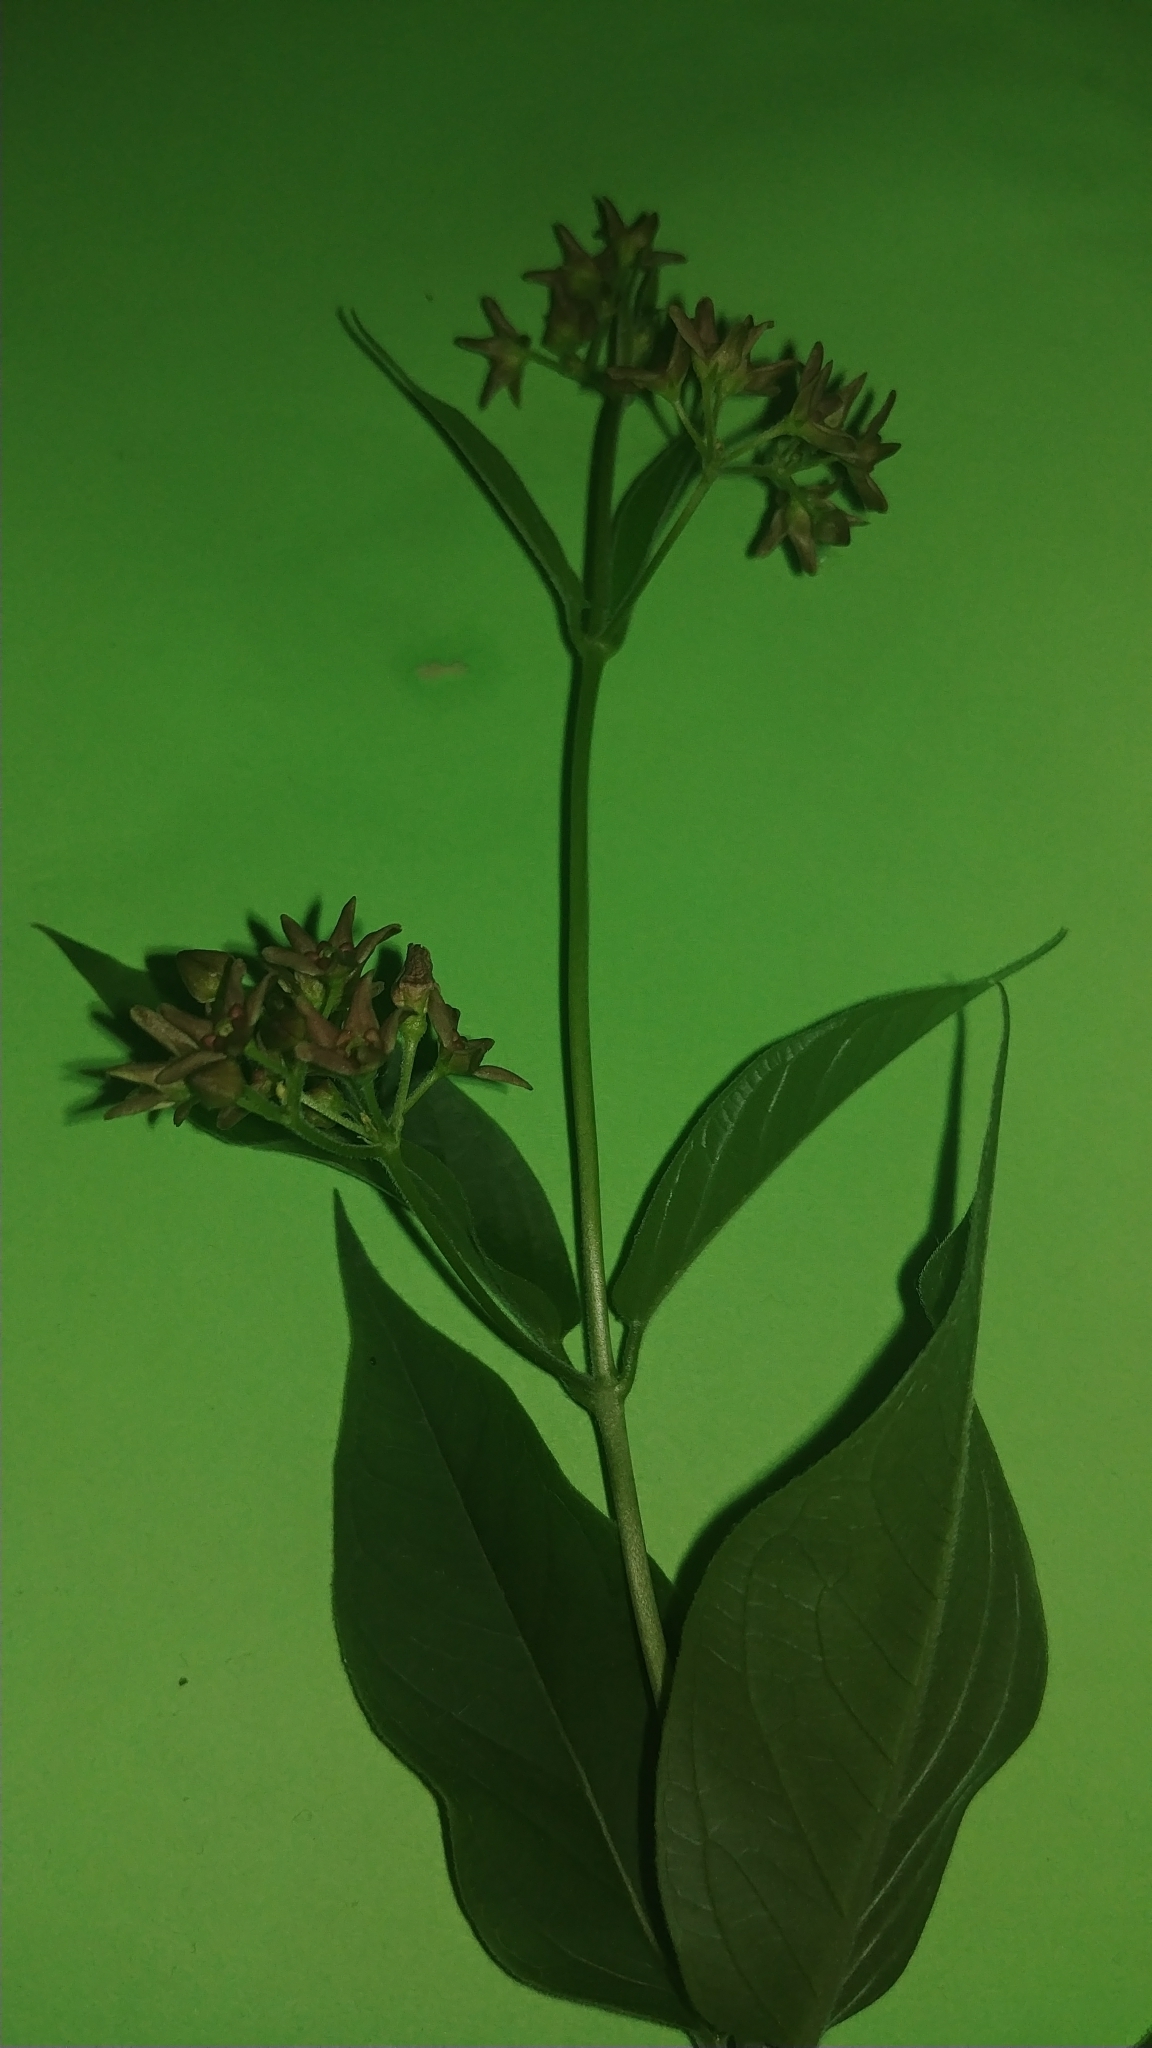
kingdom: Plantae
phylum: Tracheophyta
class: Magnoliopsida
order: Gentianales
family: Apocynaceae
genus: Vincetoxicum
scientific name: Vincetoxicum rossicum
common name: Dog-strangling vine
